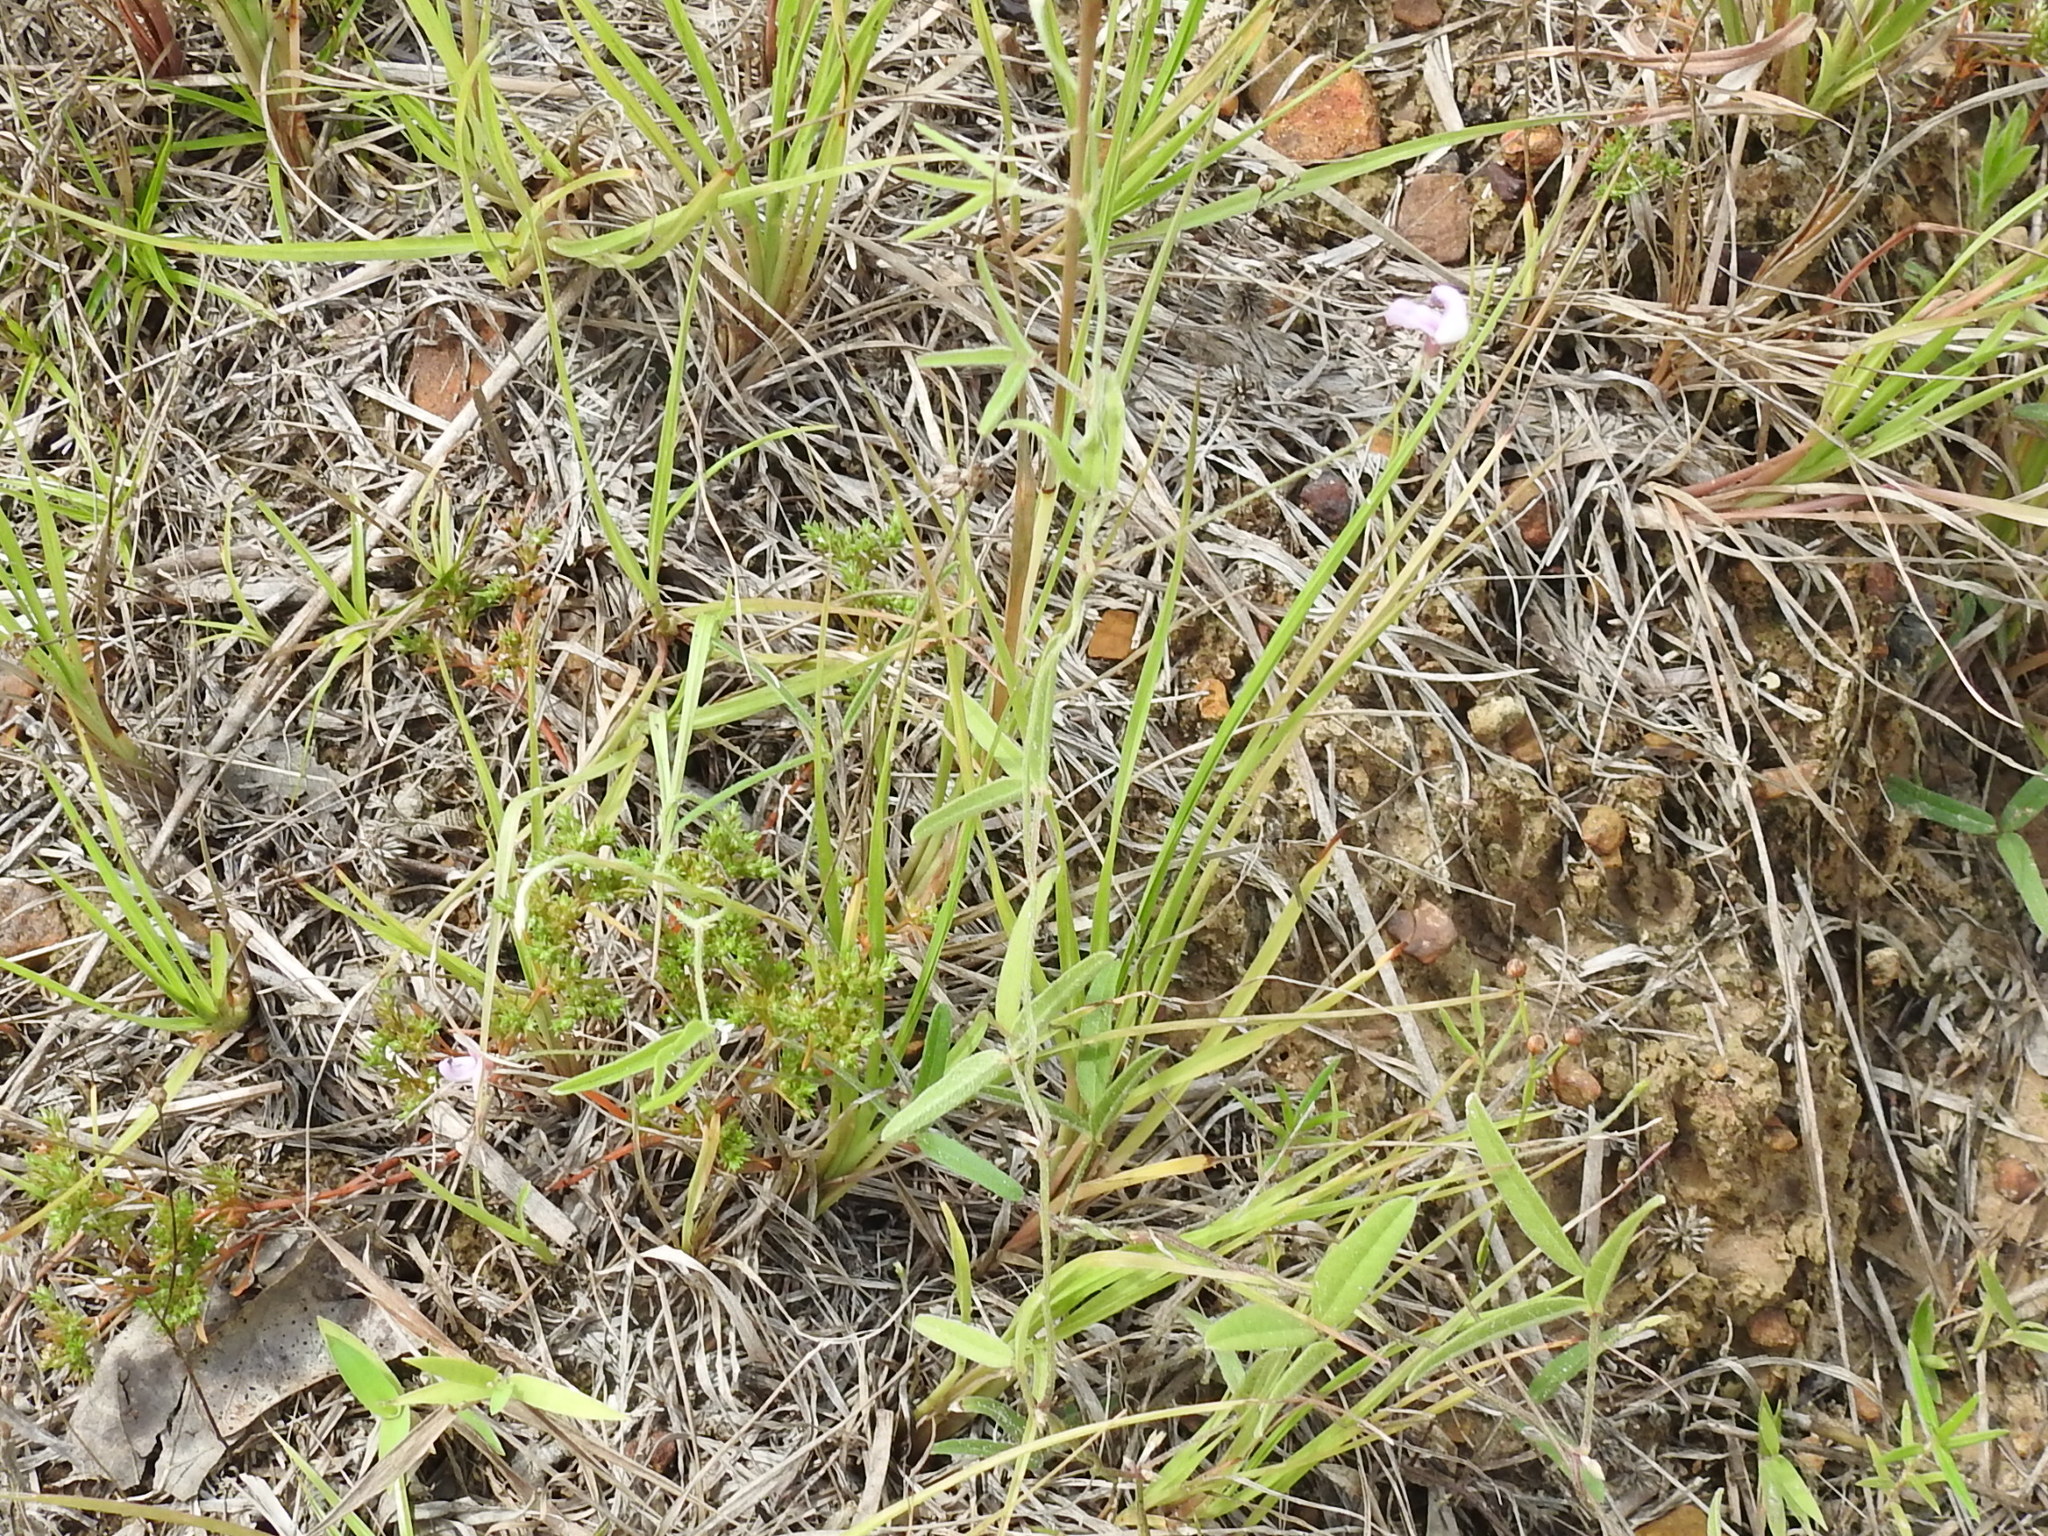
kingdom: Plantae
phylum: Tracheophyta
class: Magnoliopsida
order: Fabales
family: Fabaceae
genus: Strophostyles
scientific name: Strophostyles leiosperma
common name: Smooth-seed wild bean
